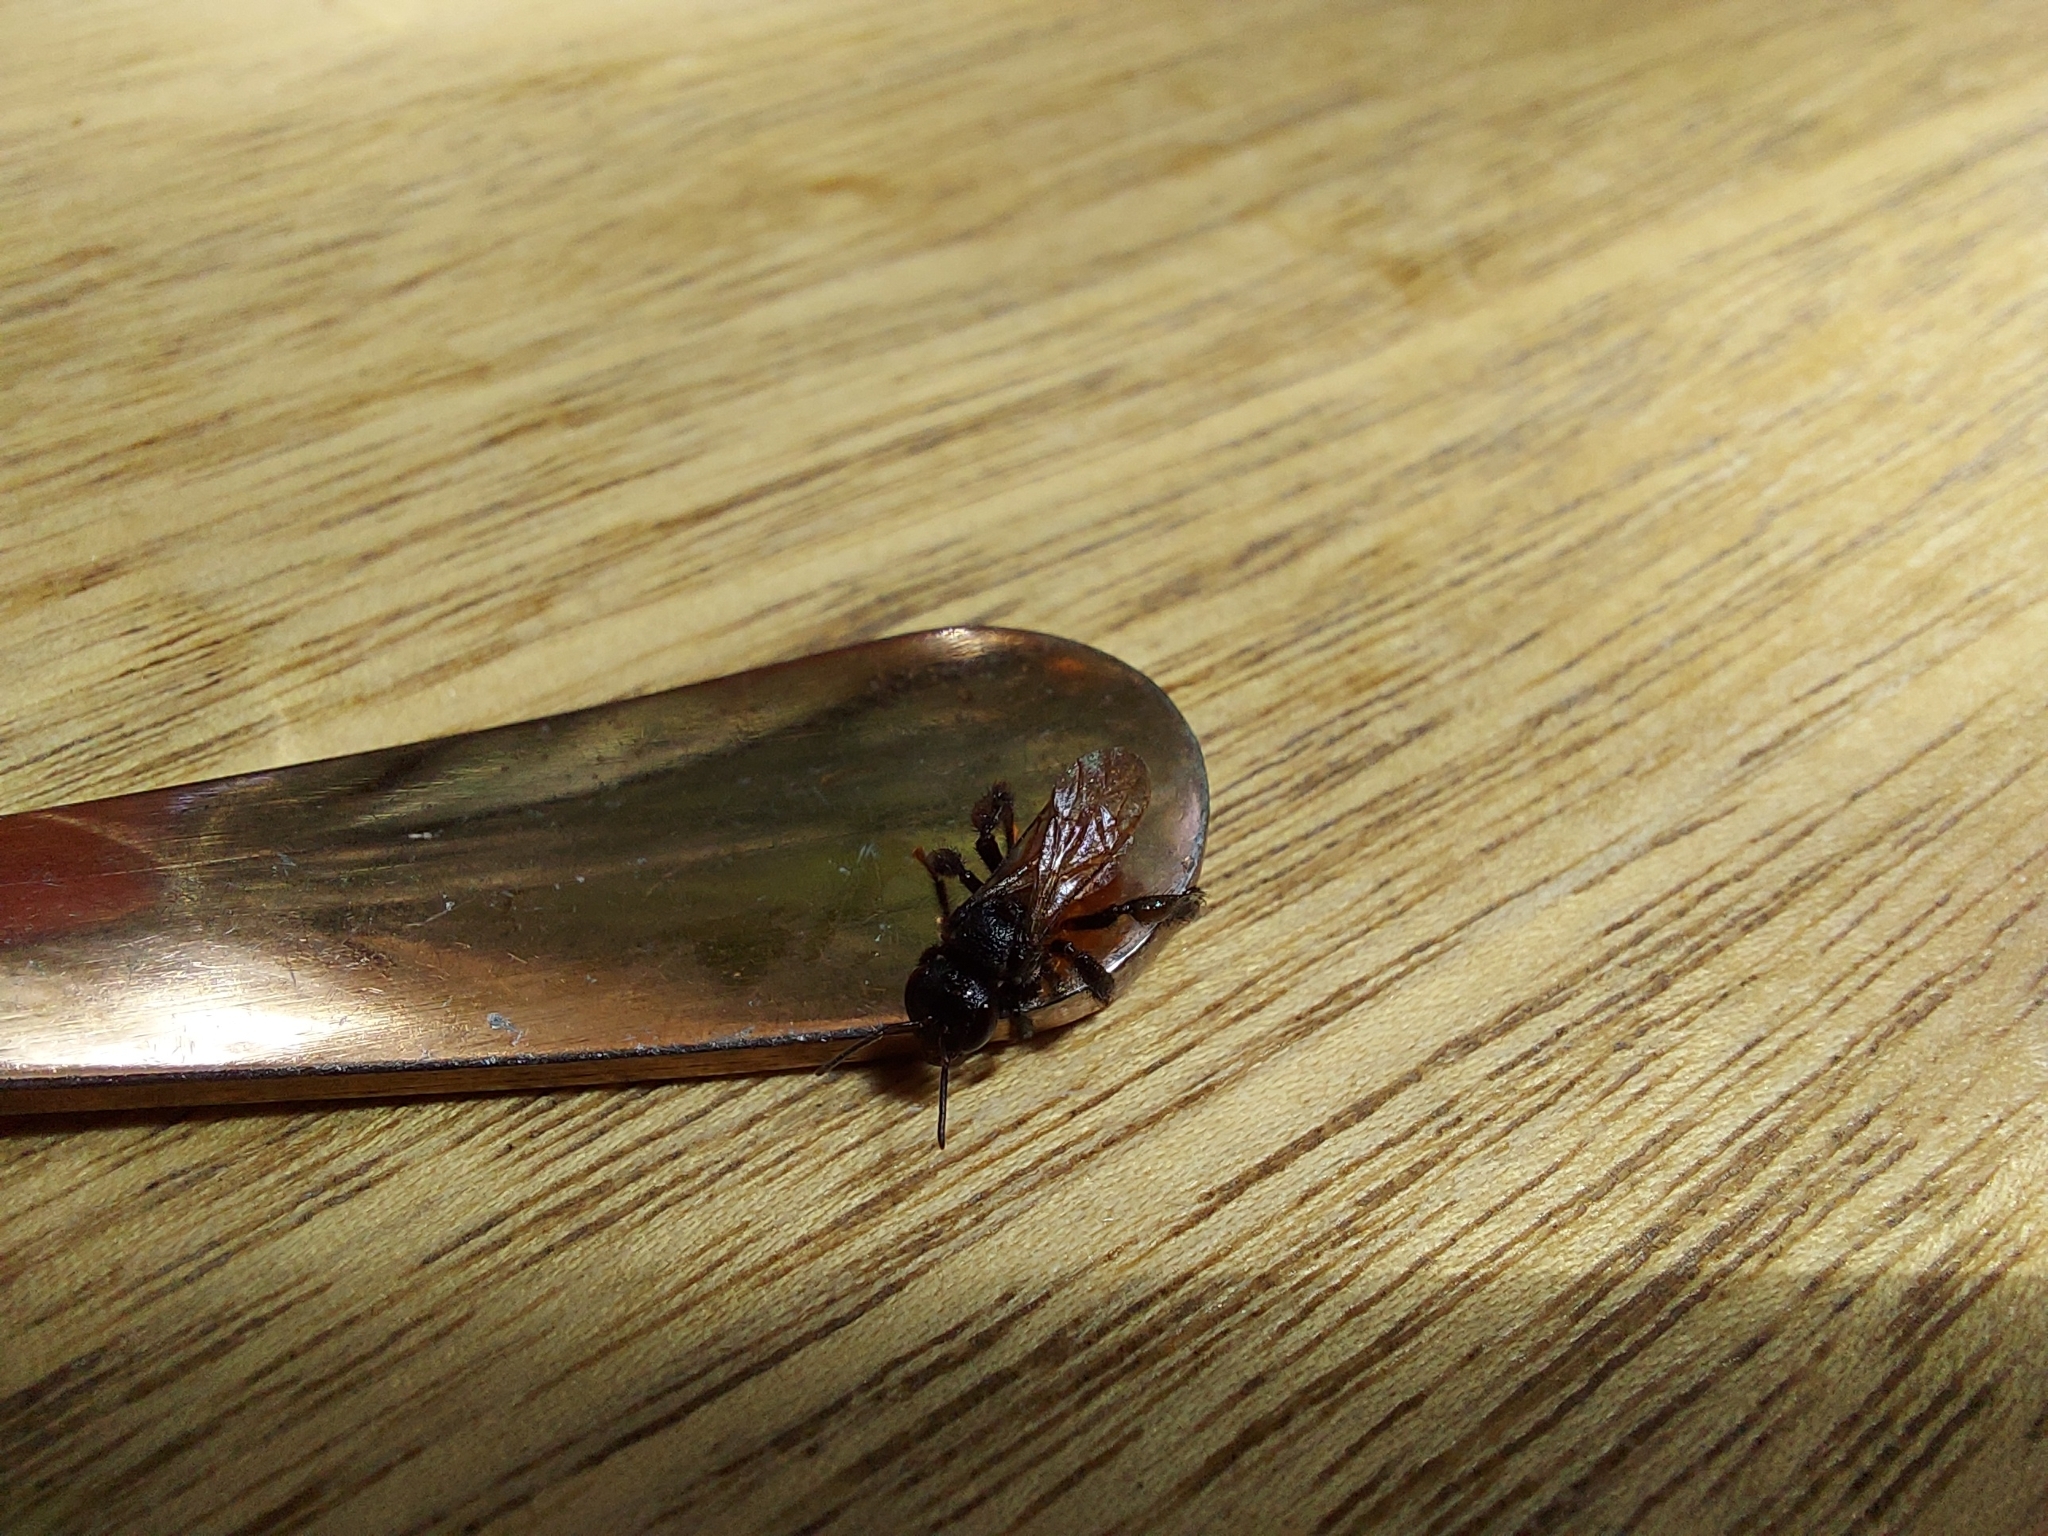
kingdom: Animalia
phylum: Arthropoda
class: Insecta
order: Hymenoptera
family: Apidae
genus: Trigona
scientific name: Trigona fulviventris
